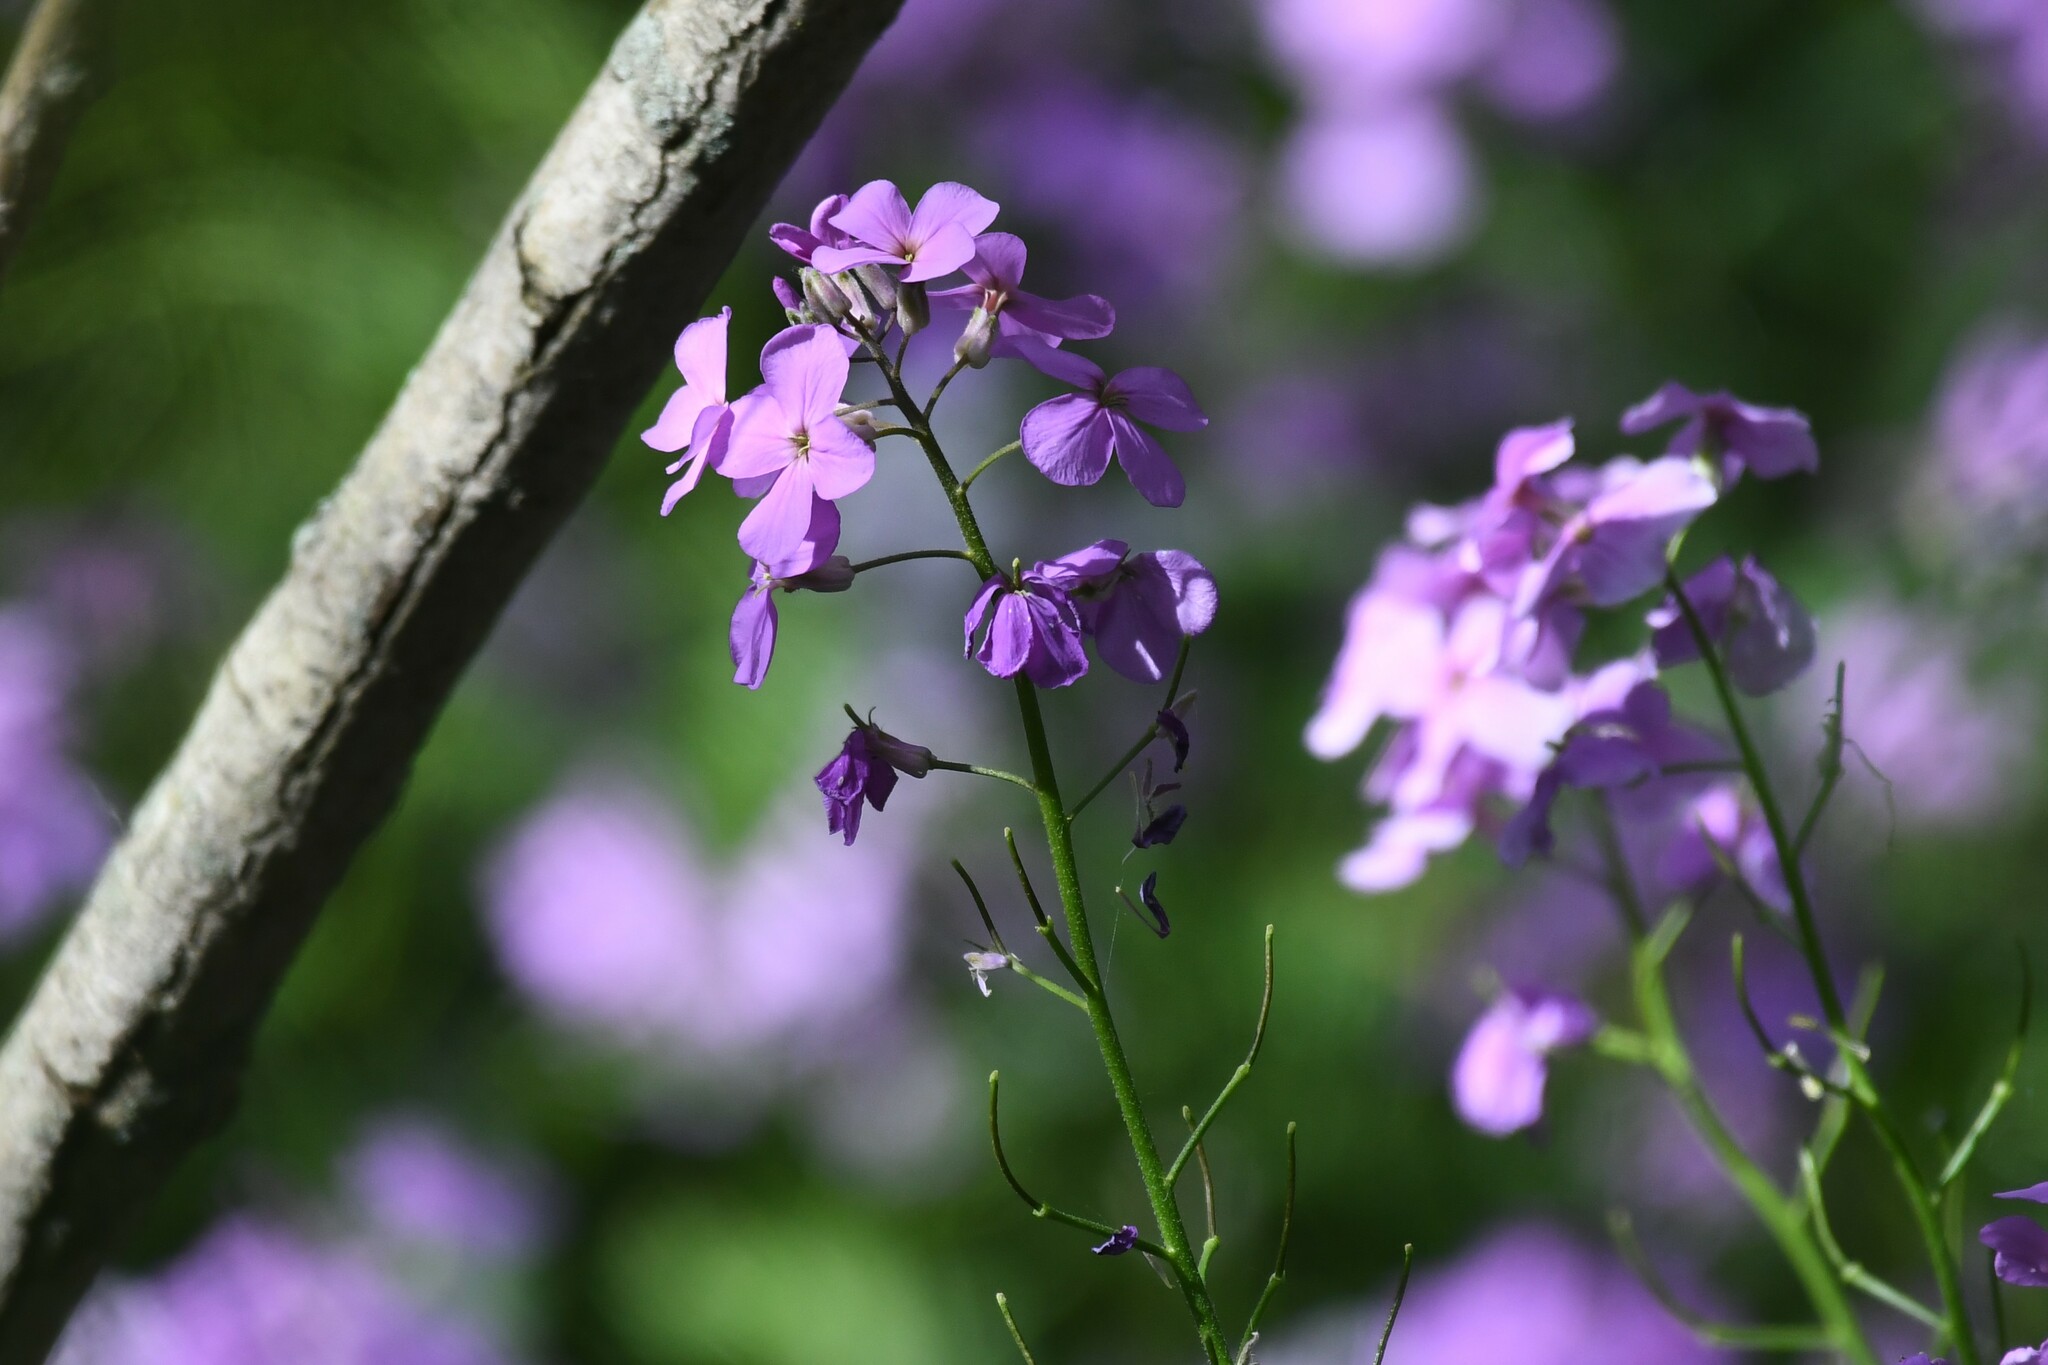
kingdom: Plantae
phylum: Tracheophyta
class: Magnoliopsida
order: Brassicales
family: Brassicaceae
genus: Hesperis
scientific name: Hesperis matronalis
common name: Dame's-violet
